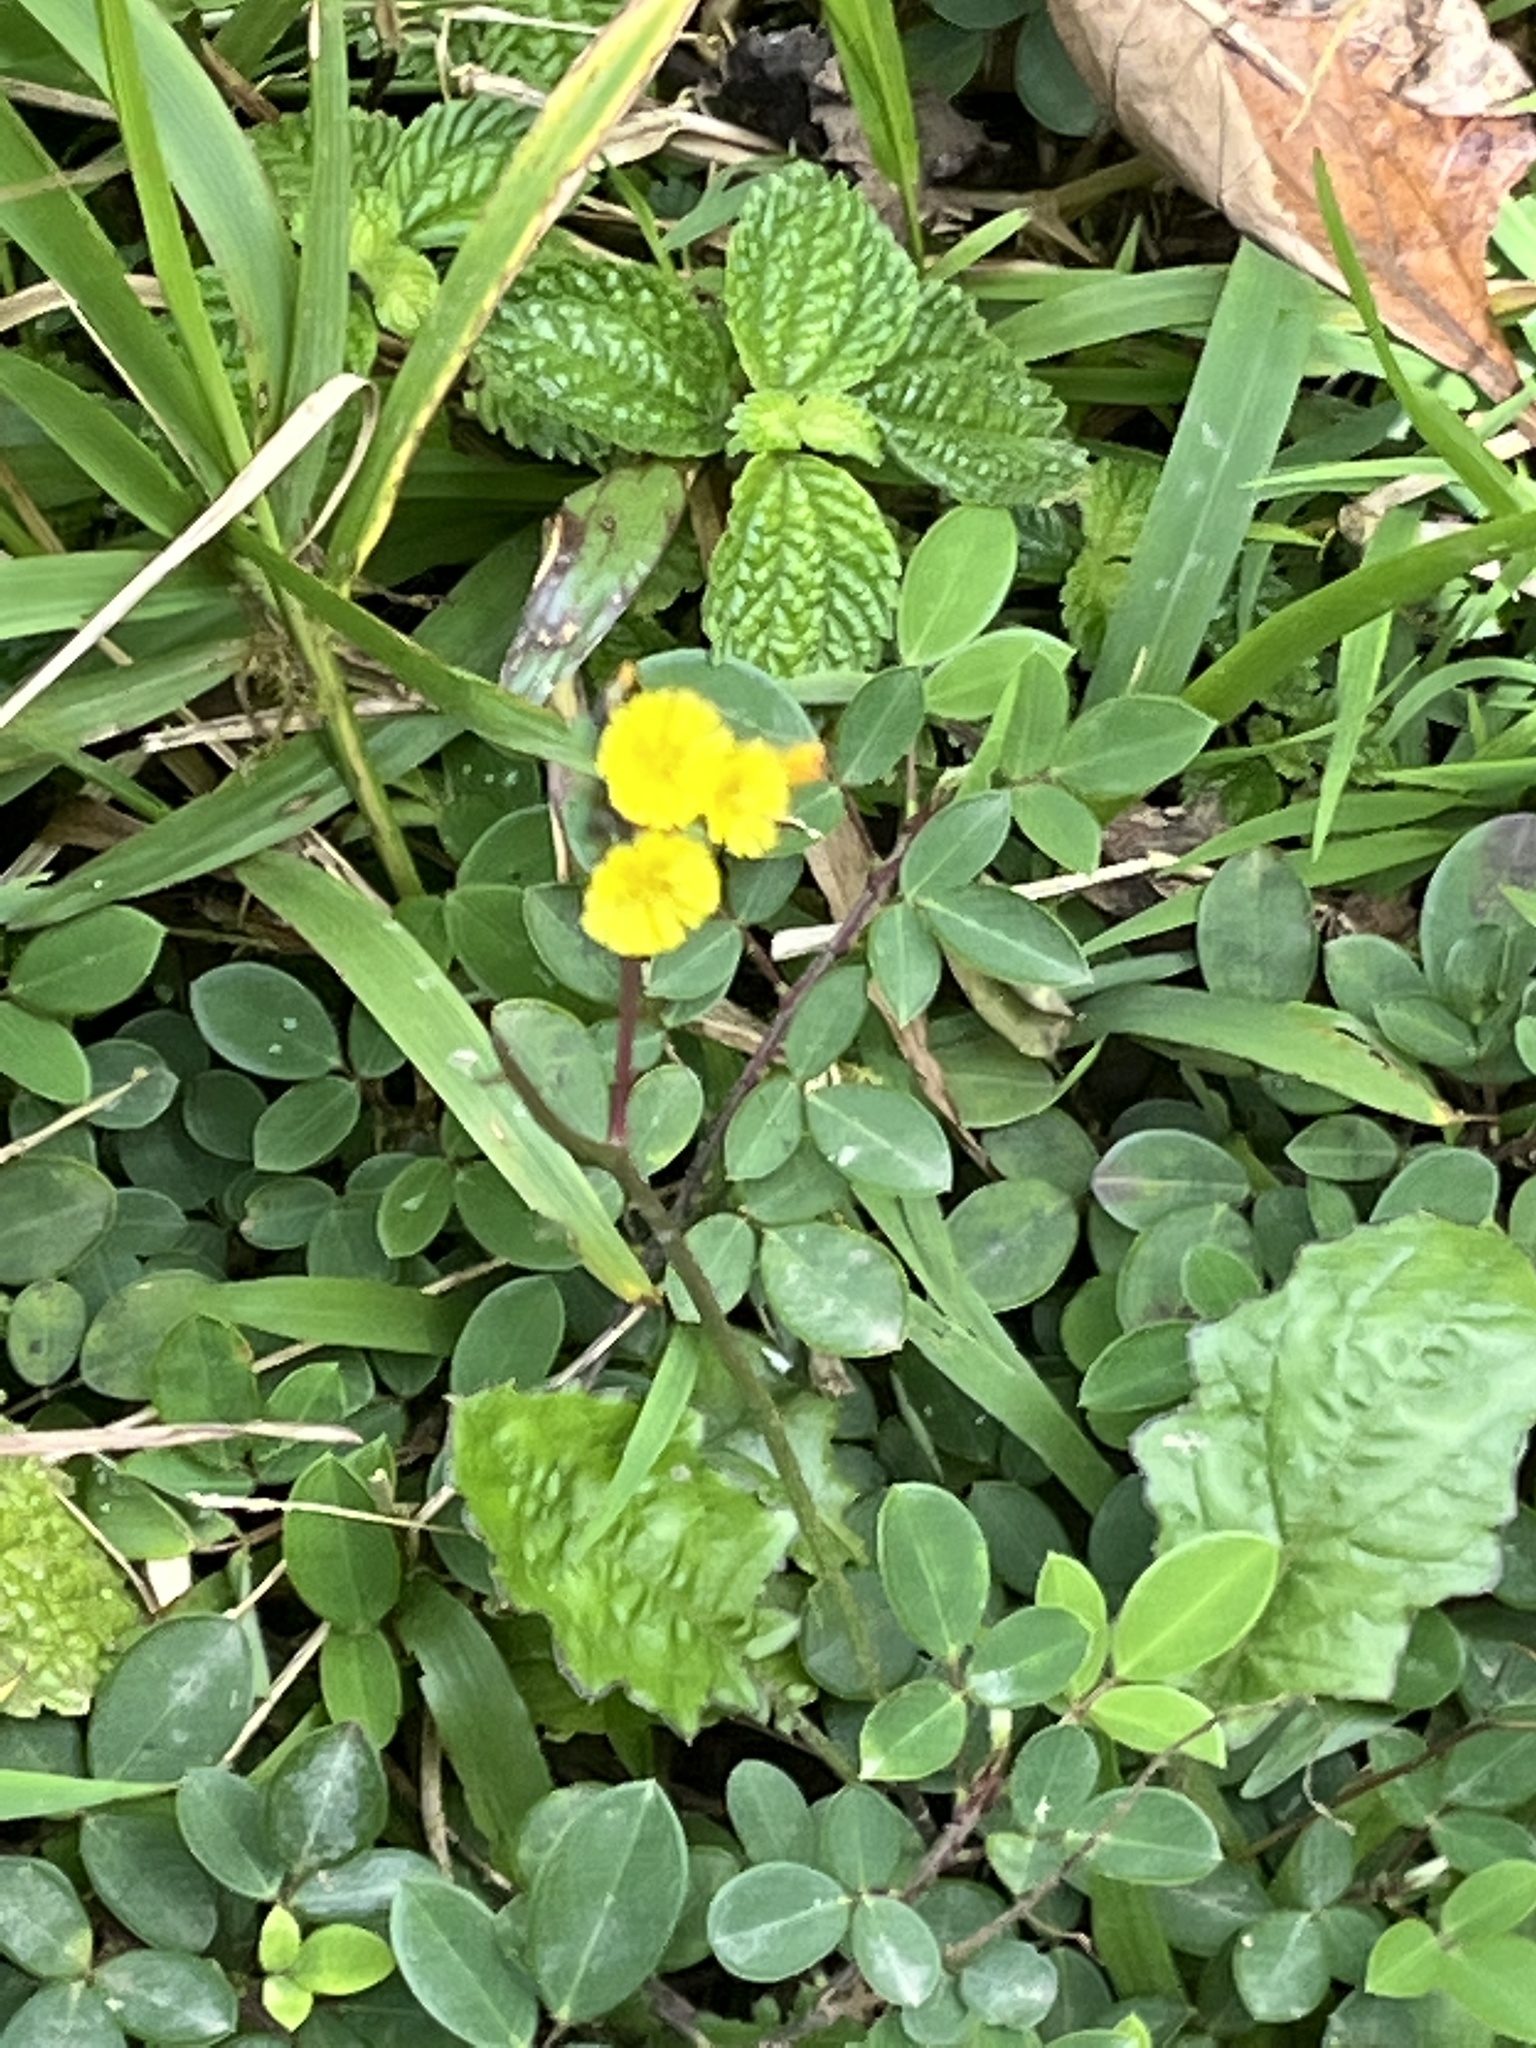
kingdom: Plantae
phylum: Tracheophyta
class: Magnoliopsida
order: Asterales
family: Asteraceae
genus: Youngia
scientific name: Youngia japonica
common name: Oriental false hawksbeard
